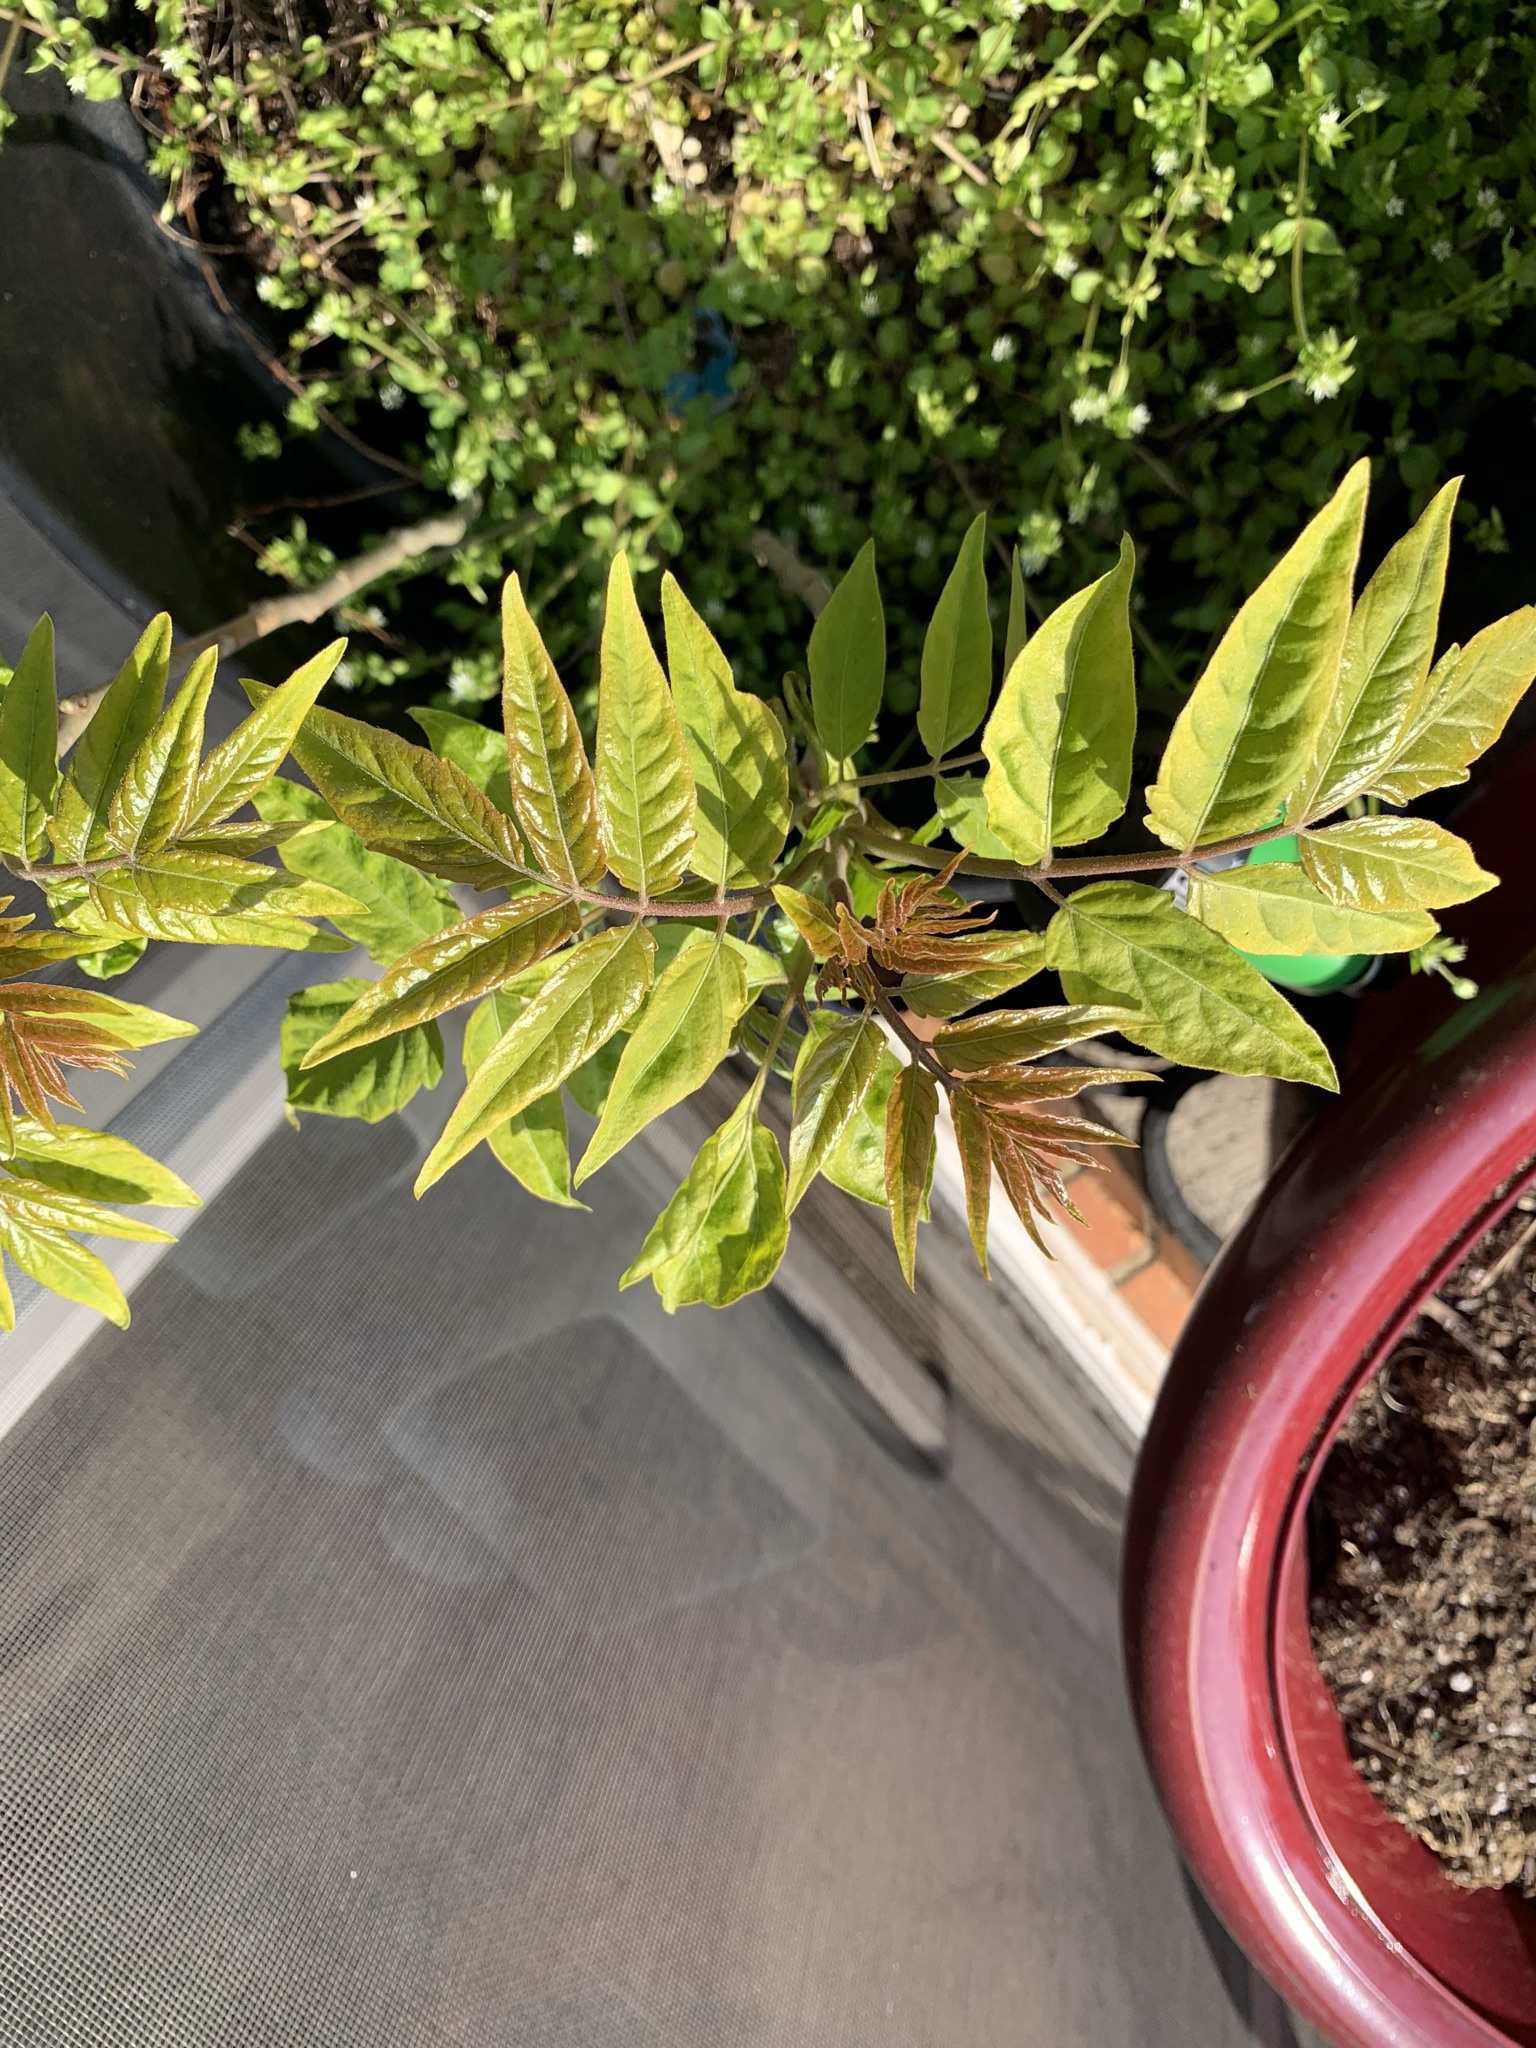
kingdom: Plantae
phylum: Tracheophyta
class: Magnoliopsida
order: Sapindales
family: Simaroubaceae
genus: Ailanthus
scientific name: Ailanthus altissima
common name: Tree-of-heaven
